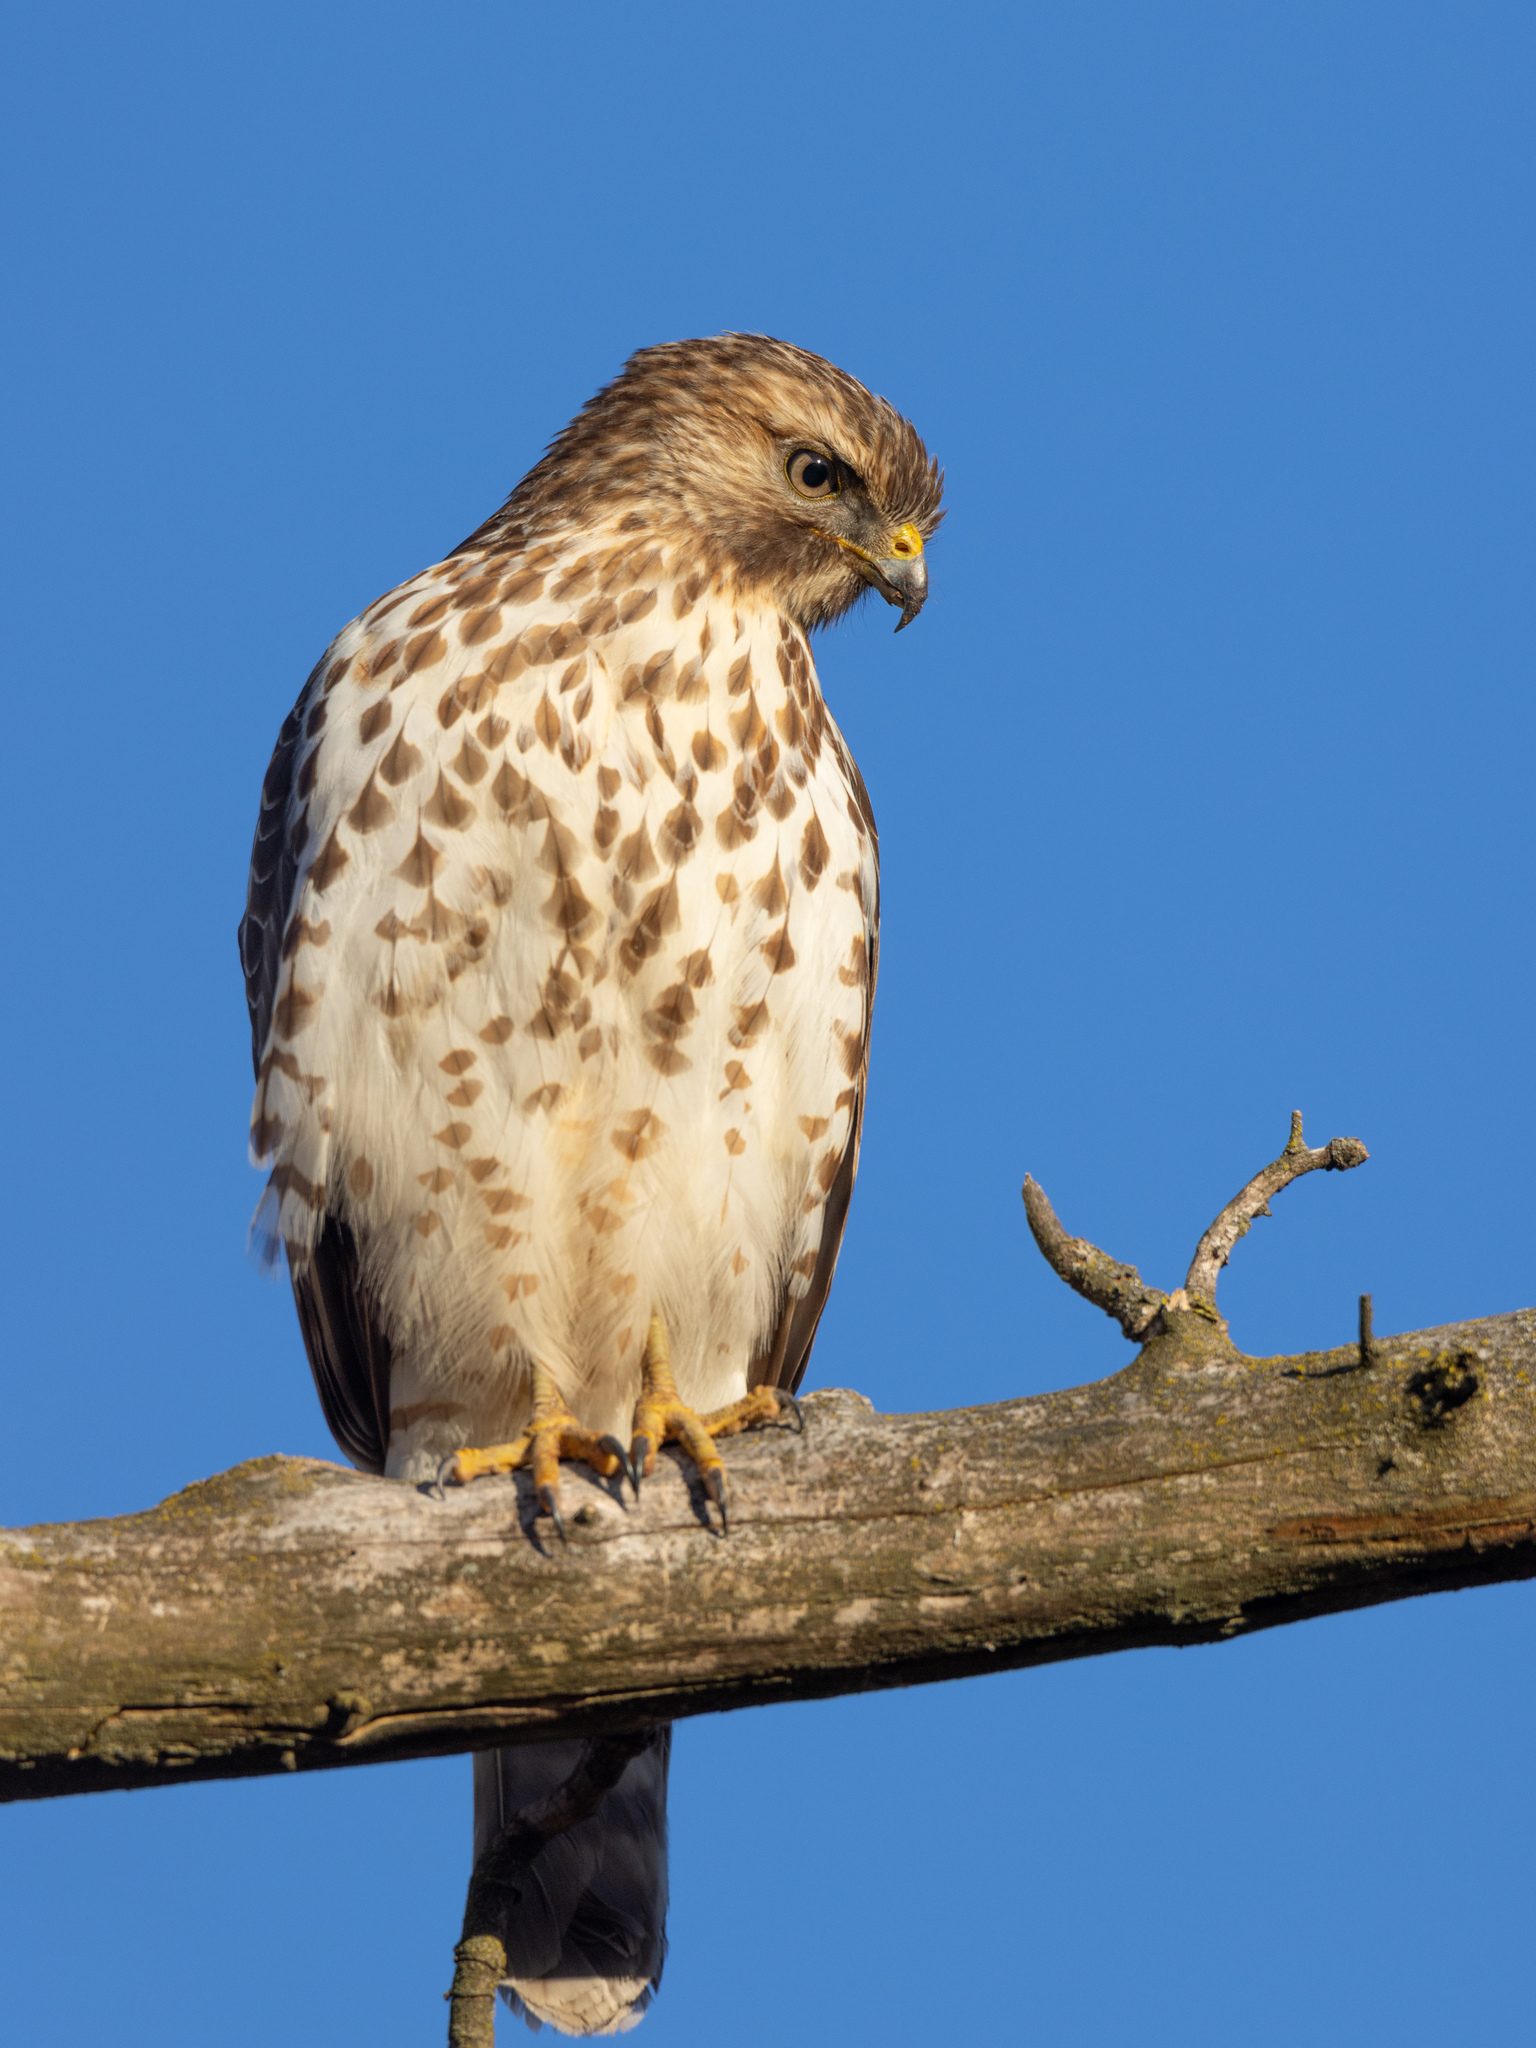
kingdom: Animalia
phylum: Chordata
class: Aves
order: Accipitriformes
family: Accipitridae
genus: Buteo
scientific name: Buteo lineatus
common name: Red-shouldered hawk
